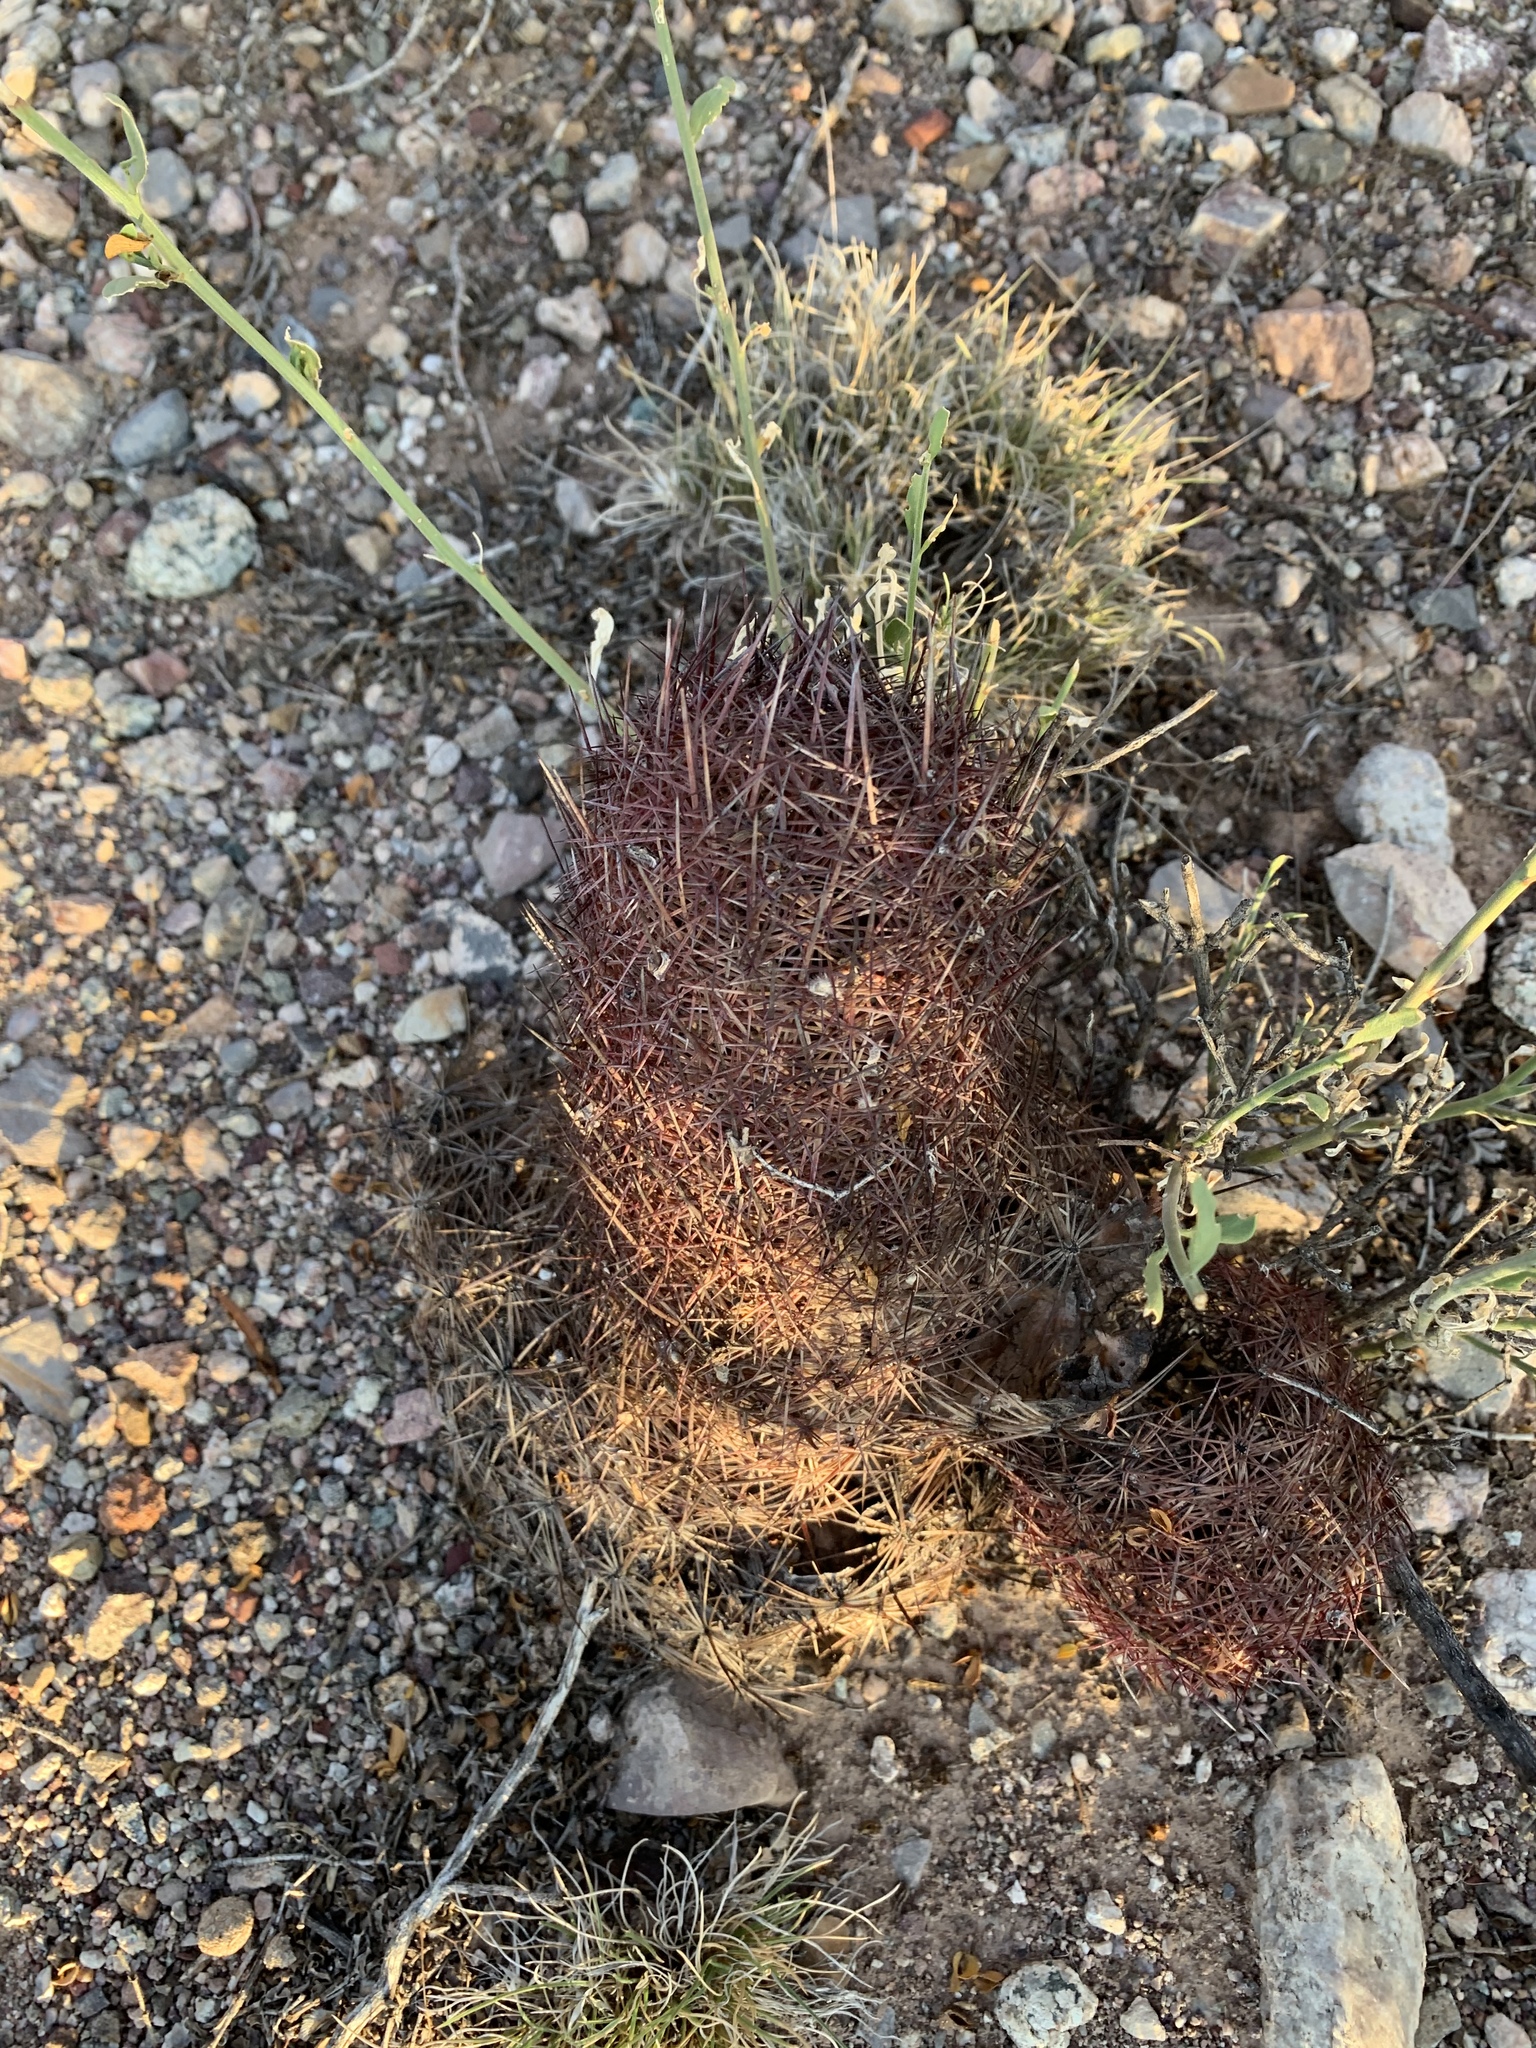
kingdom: Plantae
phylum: Tracheophyta
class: Magnoliopsida
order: Caryophyllales
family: Cactaceae
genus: Sclerocactus
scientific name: Sclerocactus johnsonii
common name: Eight-spine fishhook cactus
